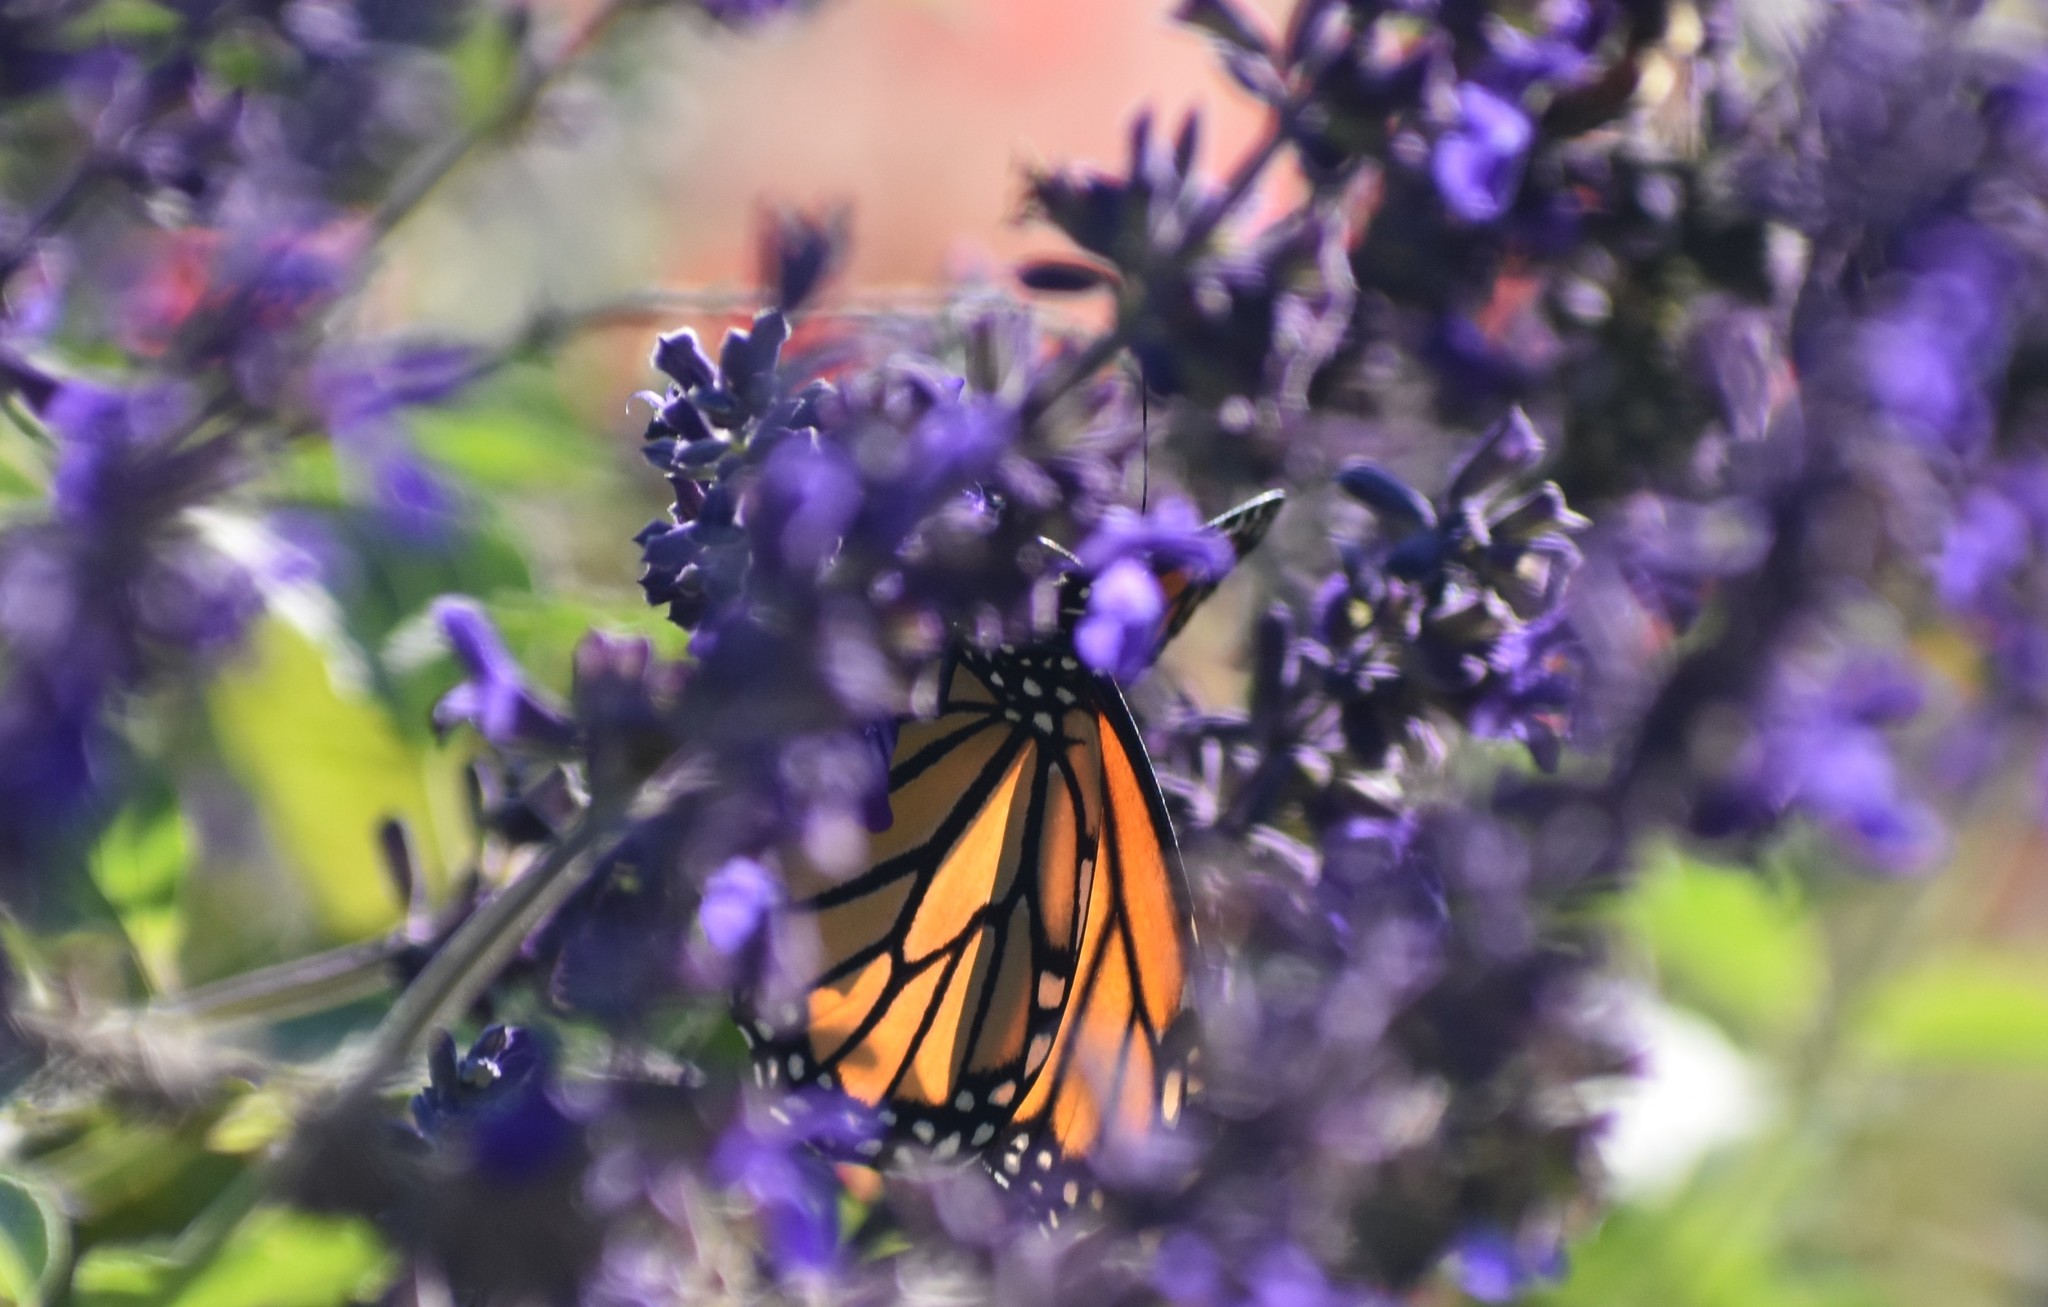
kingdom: Animalia
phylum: Arthropoda
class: Insecta
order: Lepidoptera
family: Nymphalidae
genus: Danaus
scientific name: Danaus plexippus
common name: Monarch
